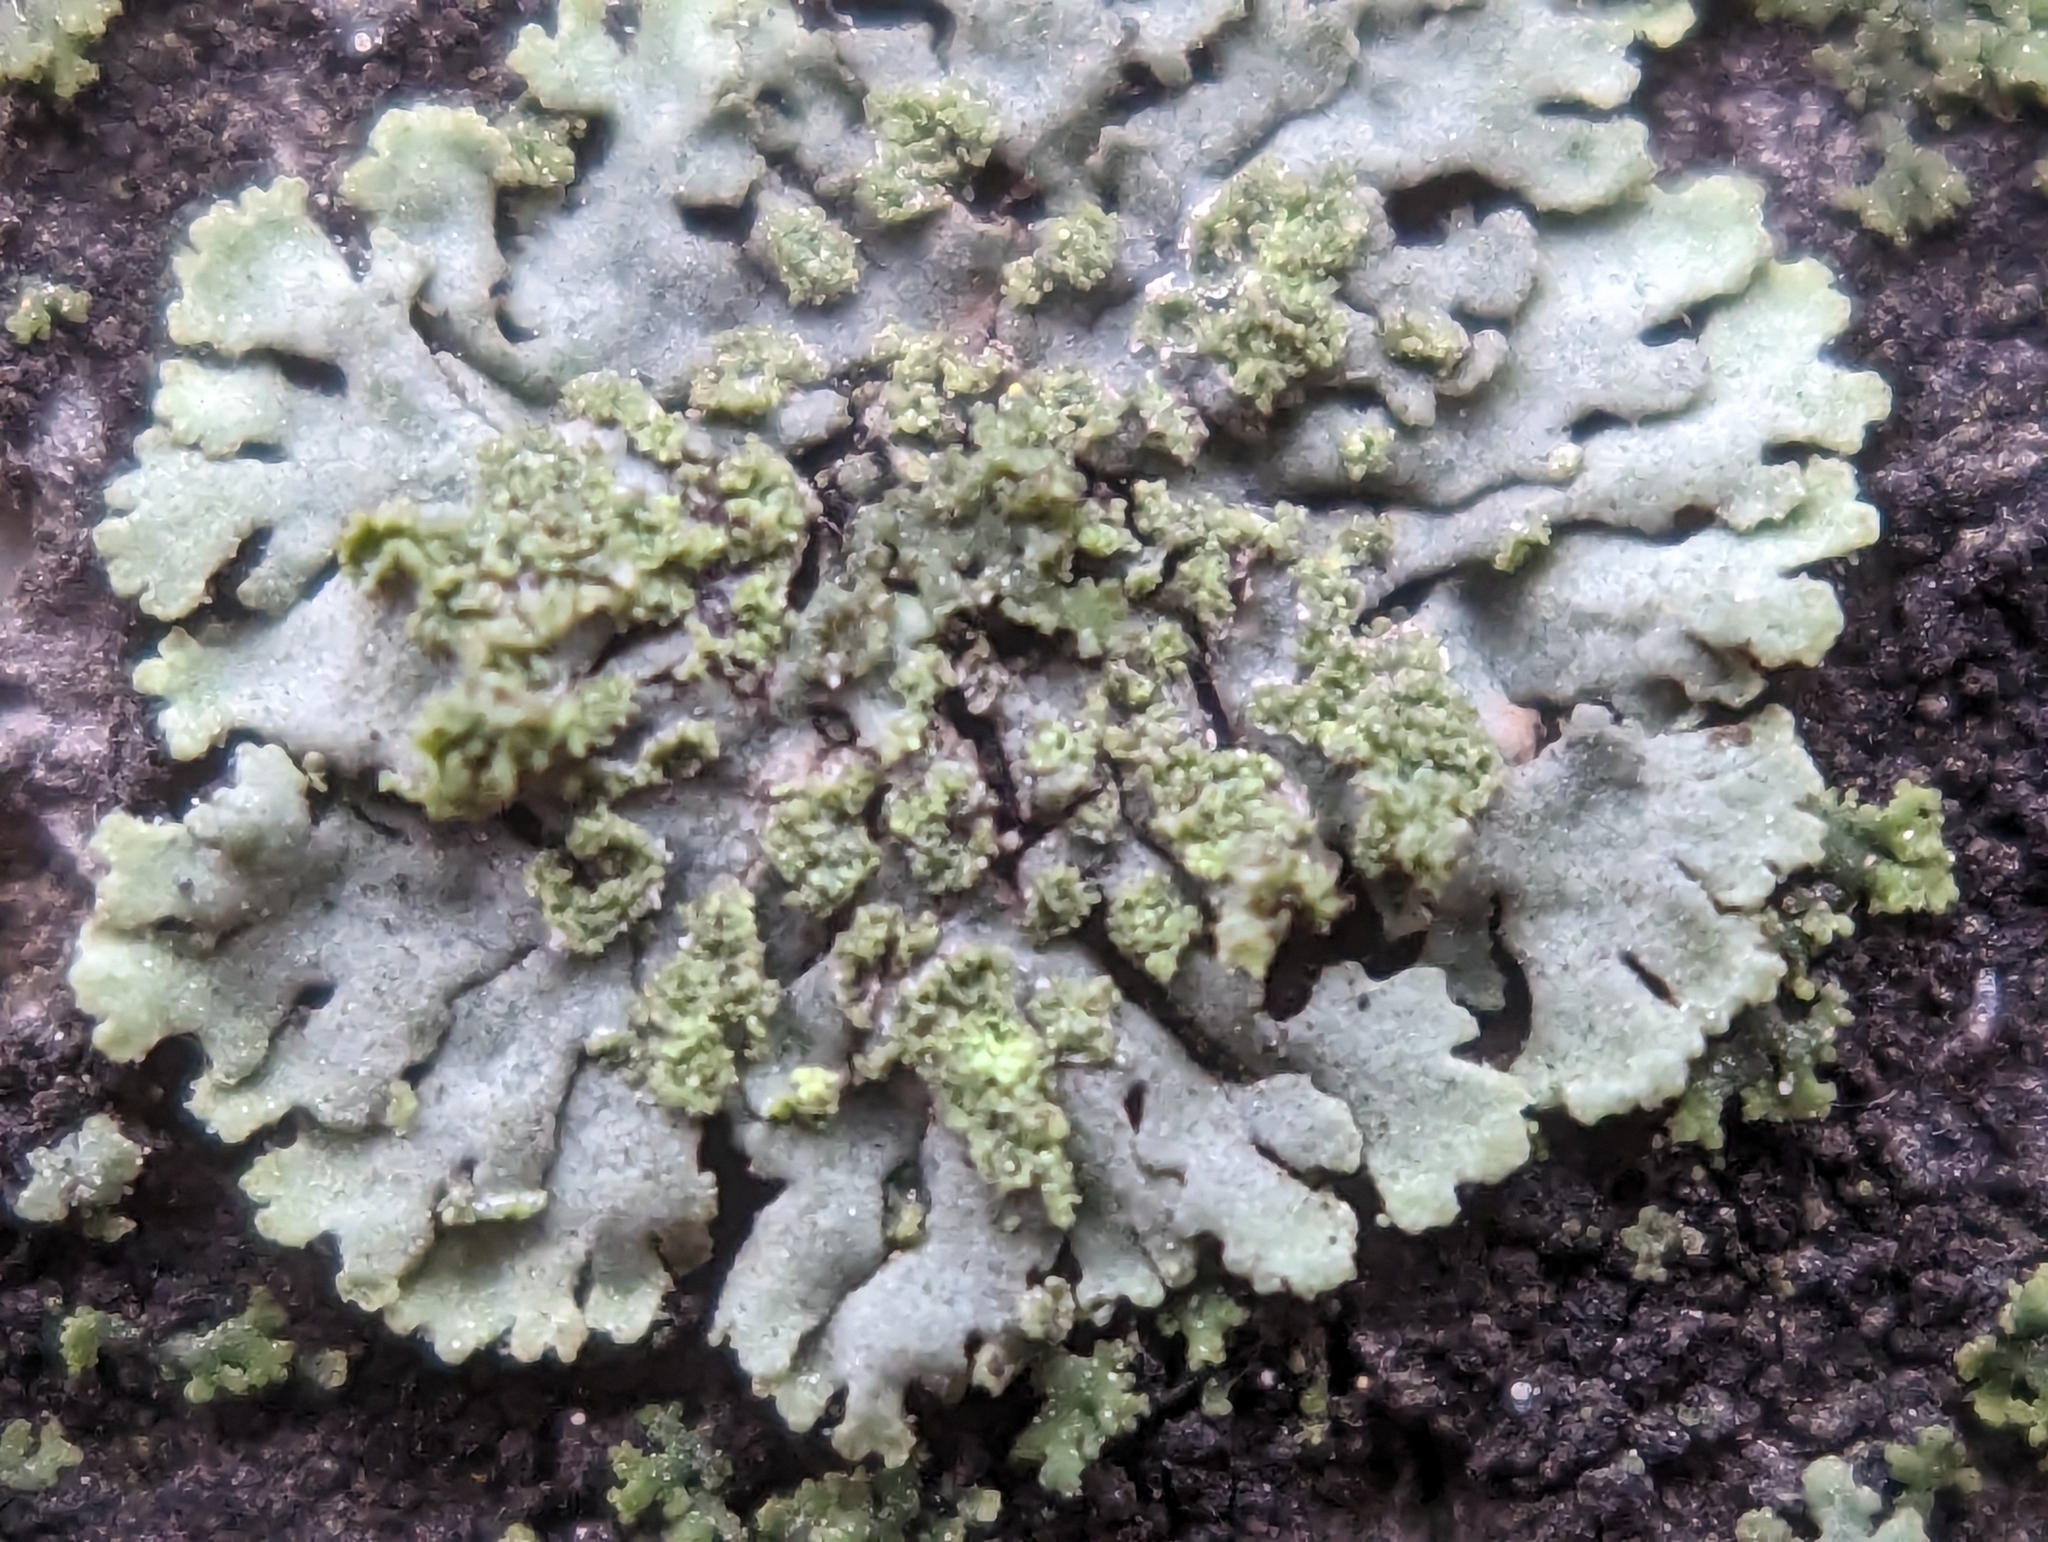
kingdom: Fungi
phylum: Ascomycota
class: Lecanoromycetes
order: Caliciales
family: Physciaceae
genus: Phaeophyscia
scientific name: Phaeophyscia orbicularis
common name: Mealy shadow lichen
